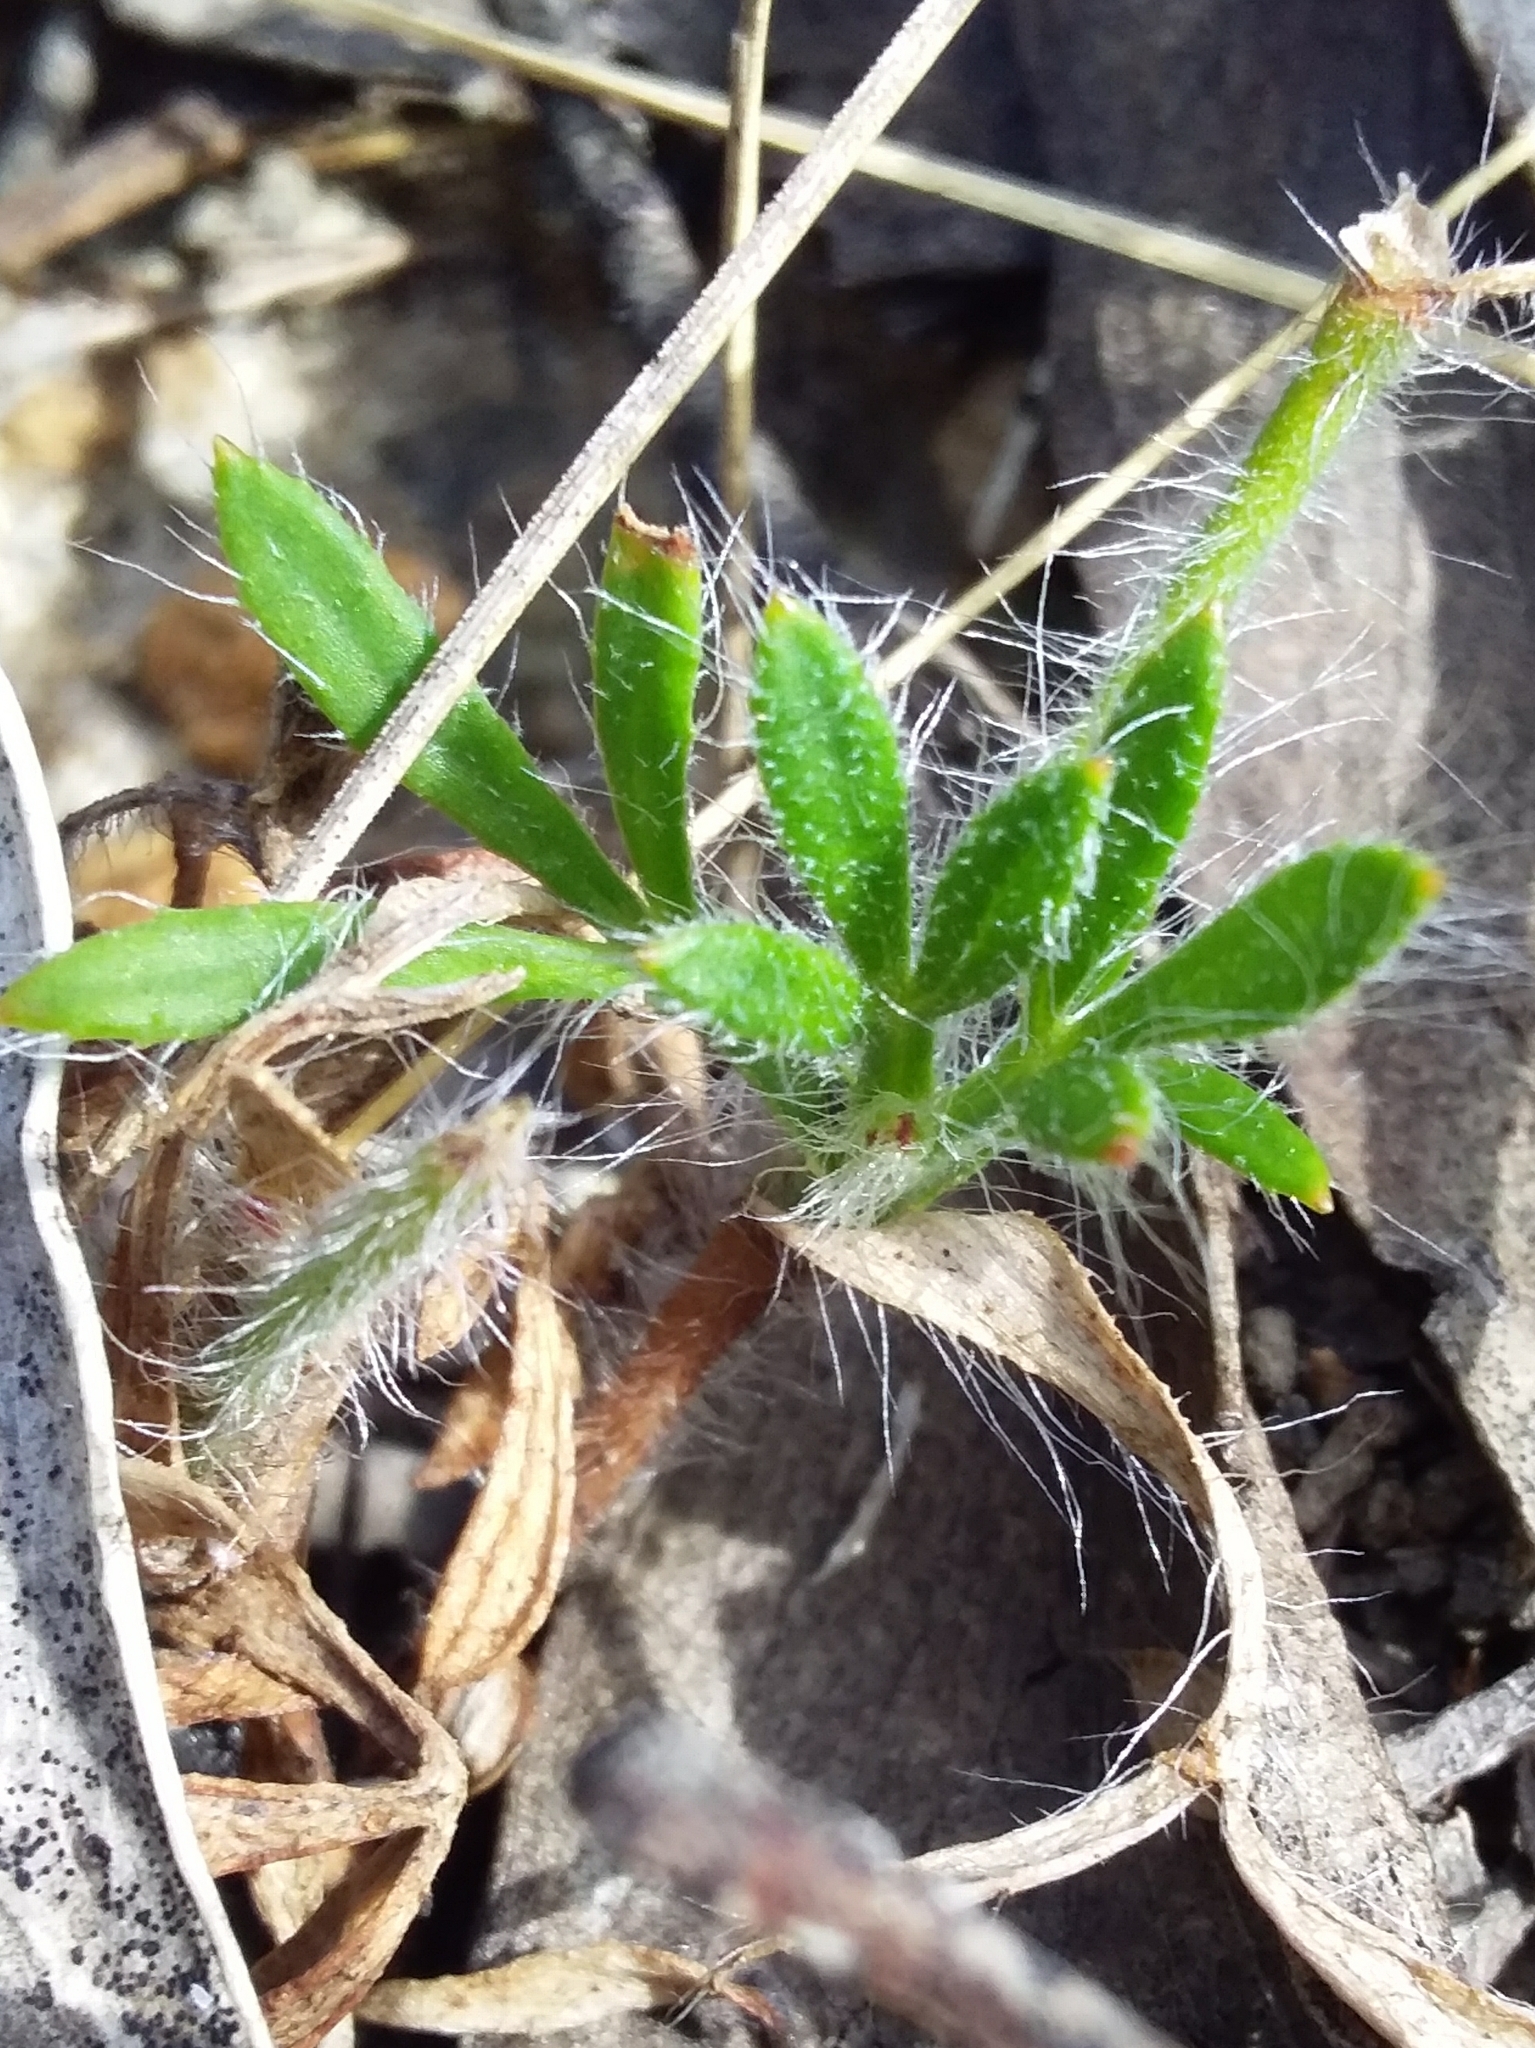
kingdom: Plantae
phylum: Tracheophyta
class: Magnoliopsida
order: Apiales
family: Apiaceae
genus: Xanthosia
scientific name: Xanthosia huegelii
